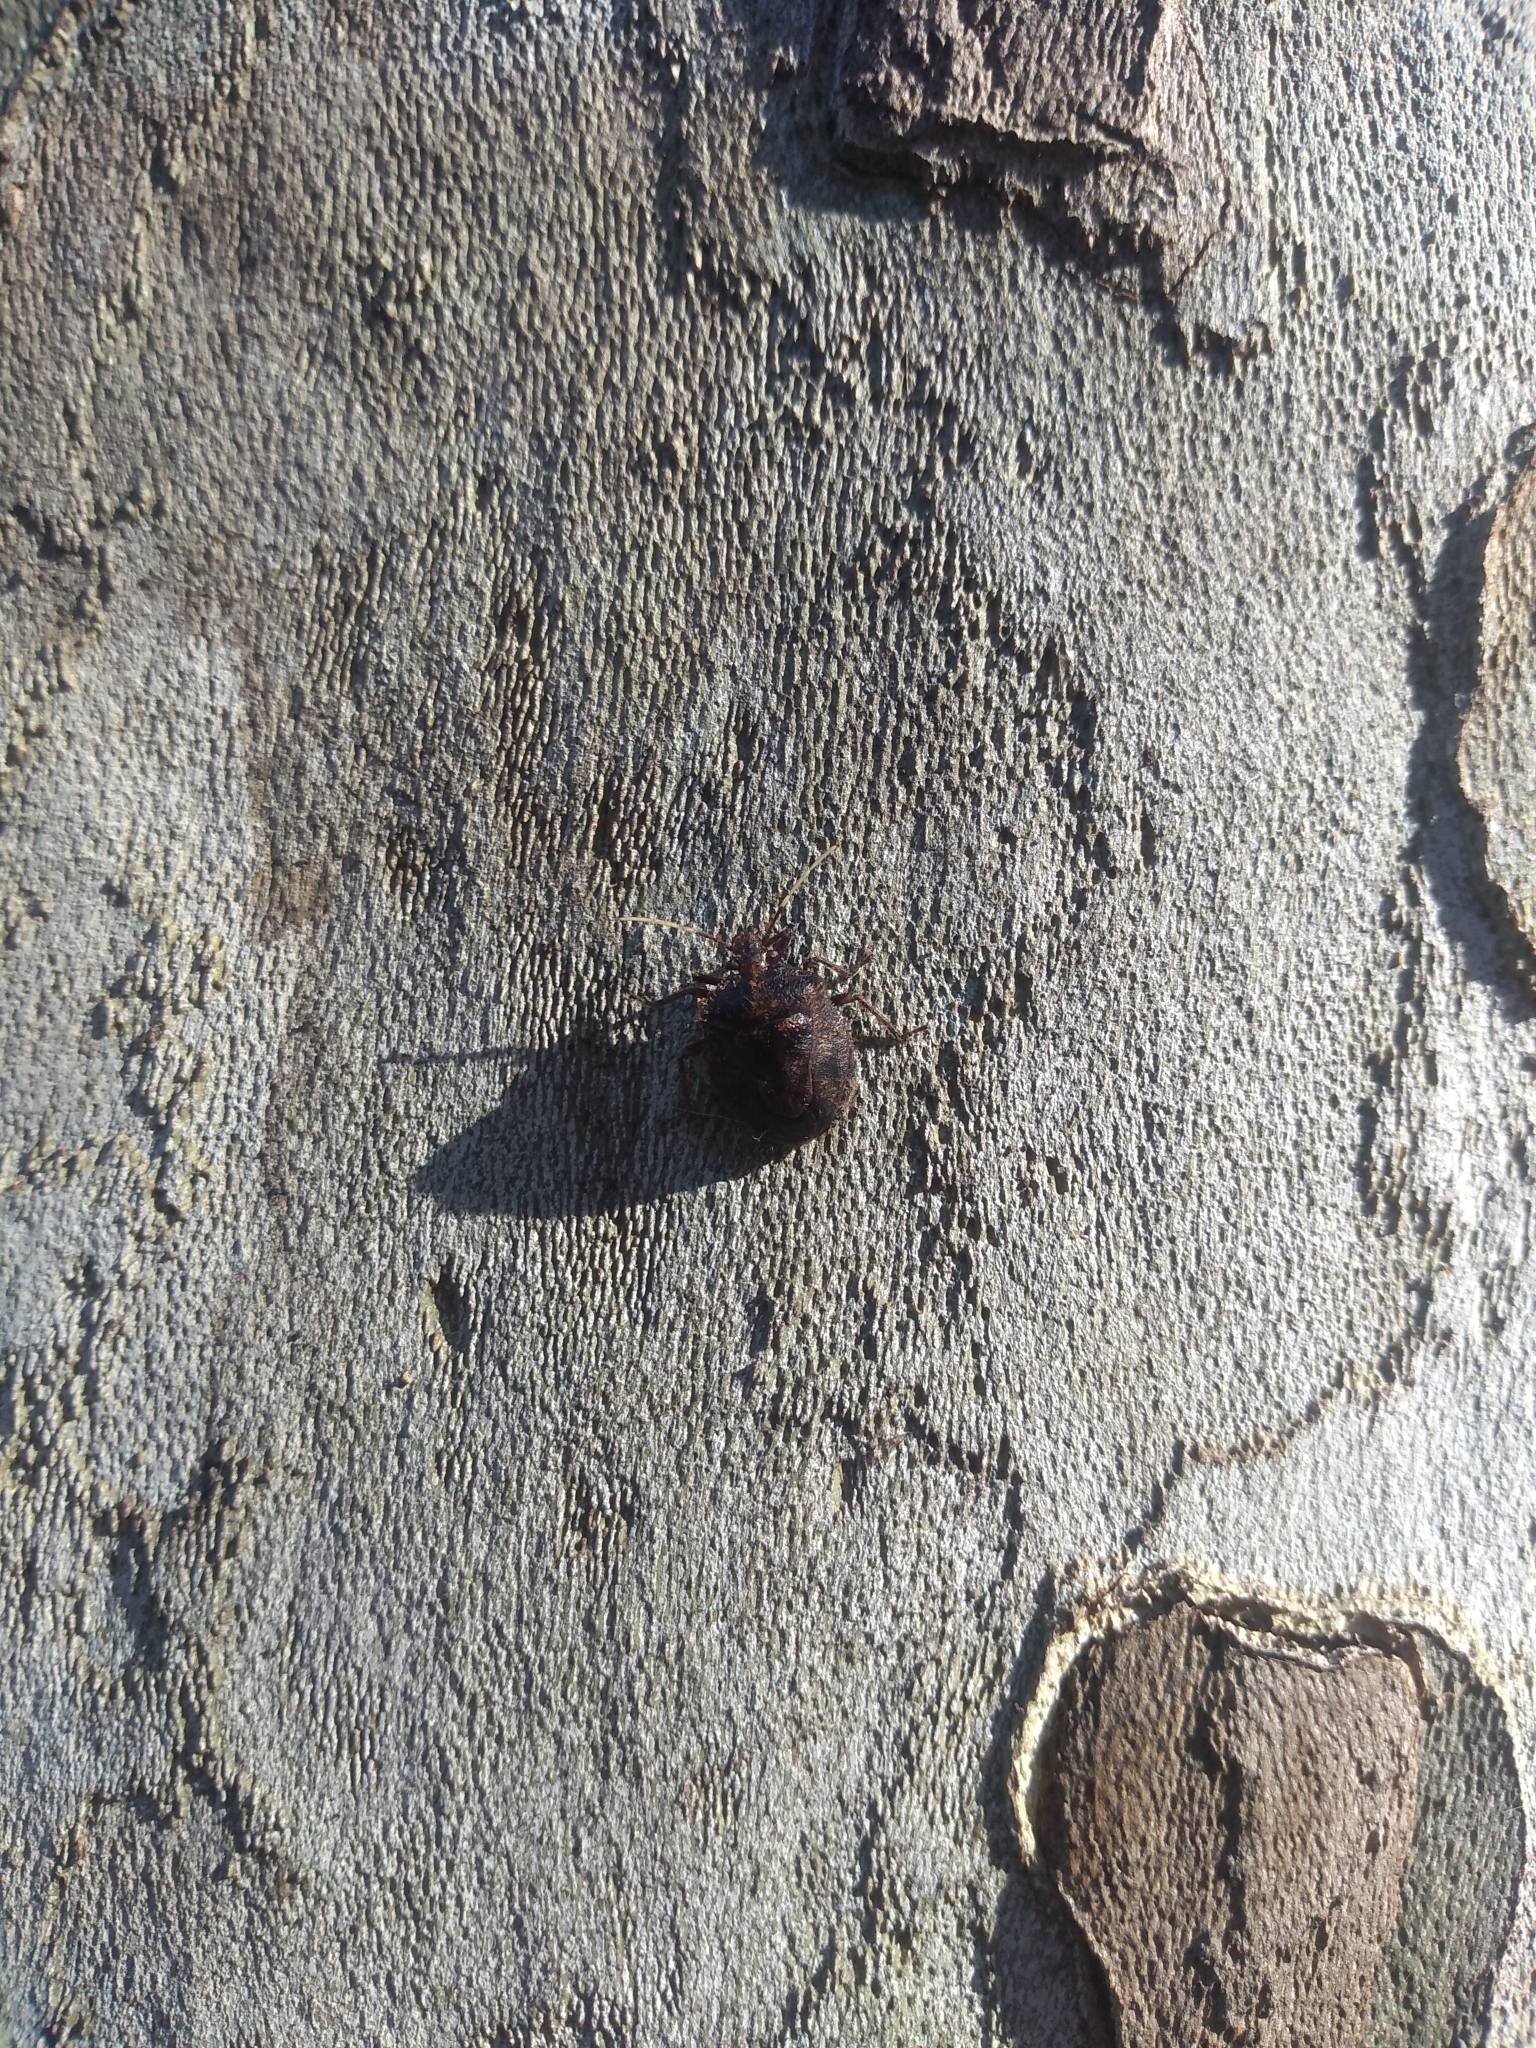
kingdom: Animalia
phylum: Arthropoda
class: Insecta
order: Hemiptera
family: Pentatomidae
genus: Antiteuchus
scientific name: Antiteuchus mixtus
